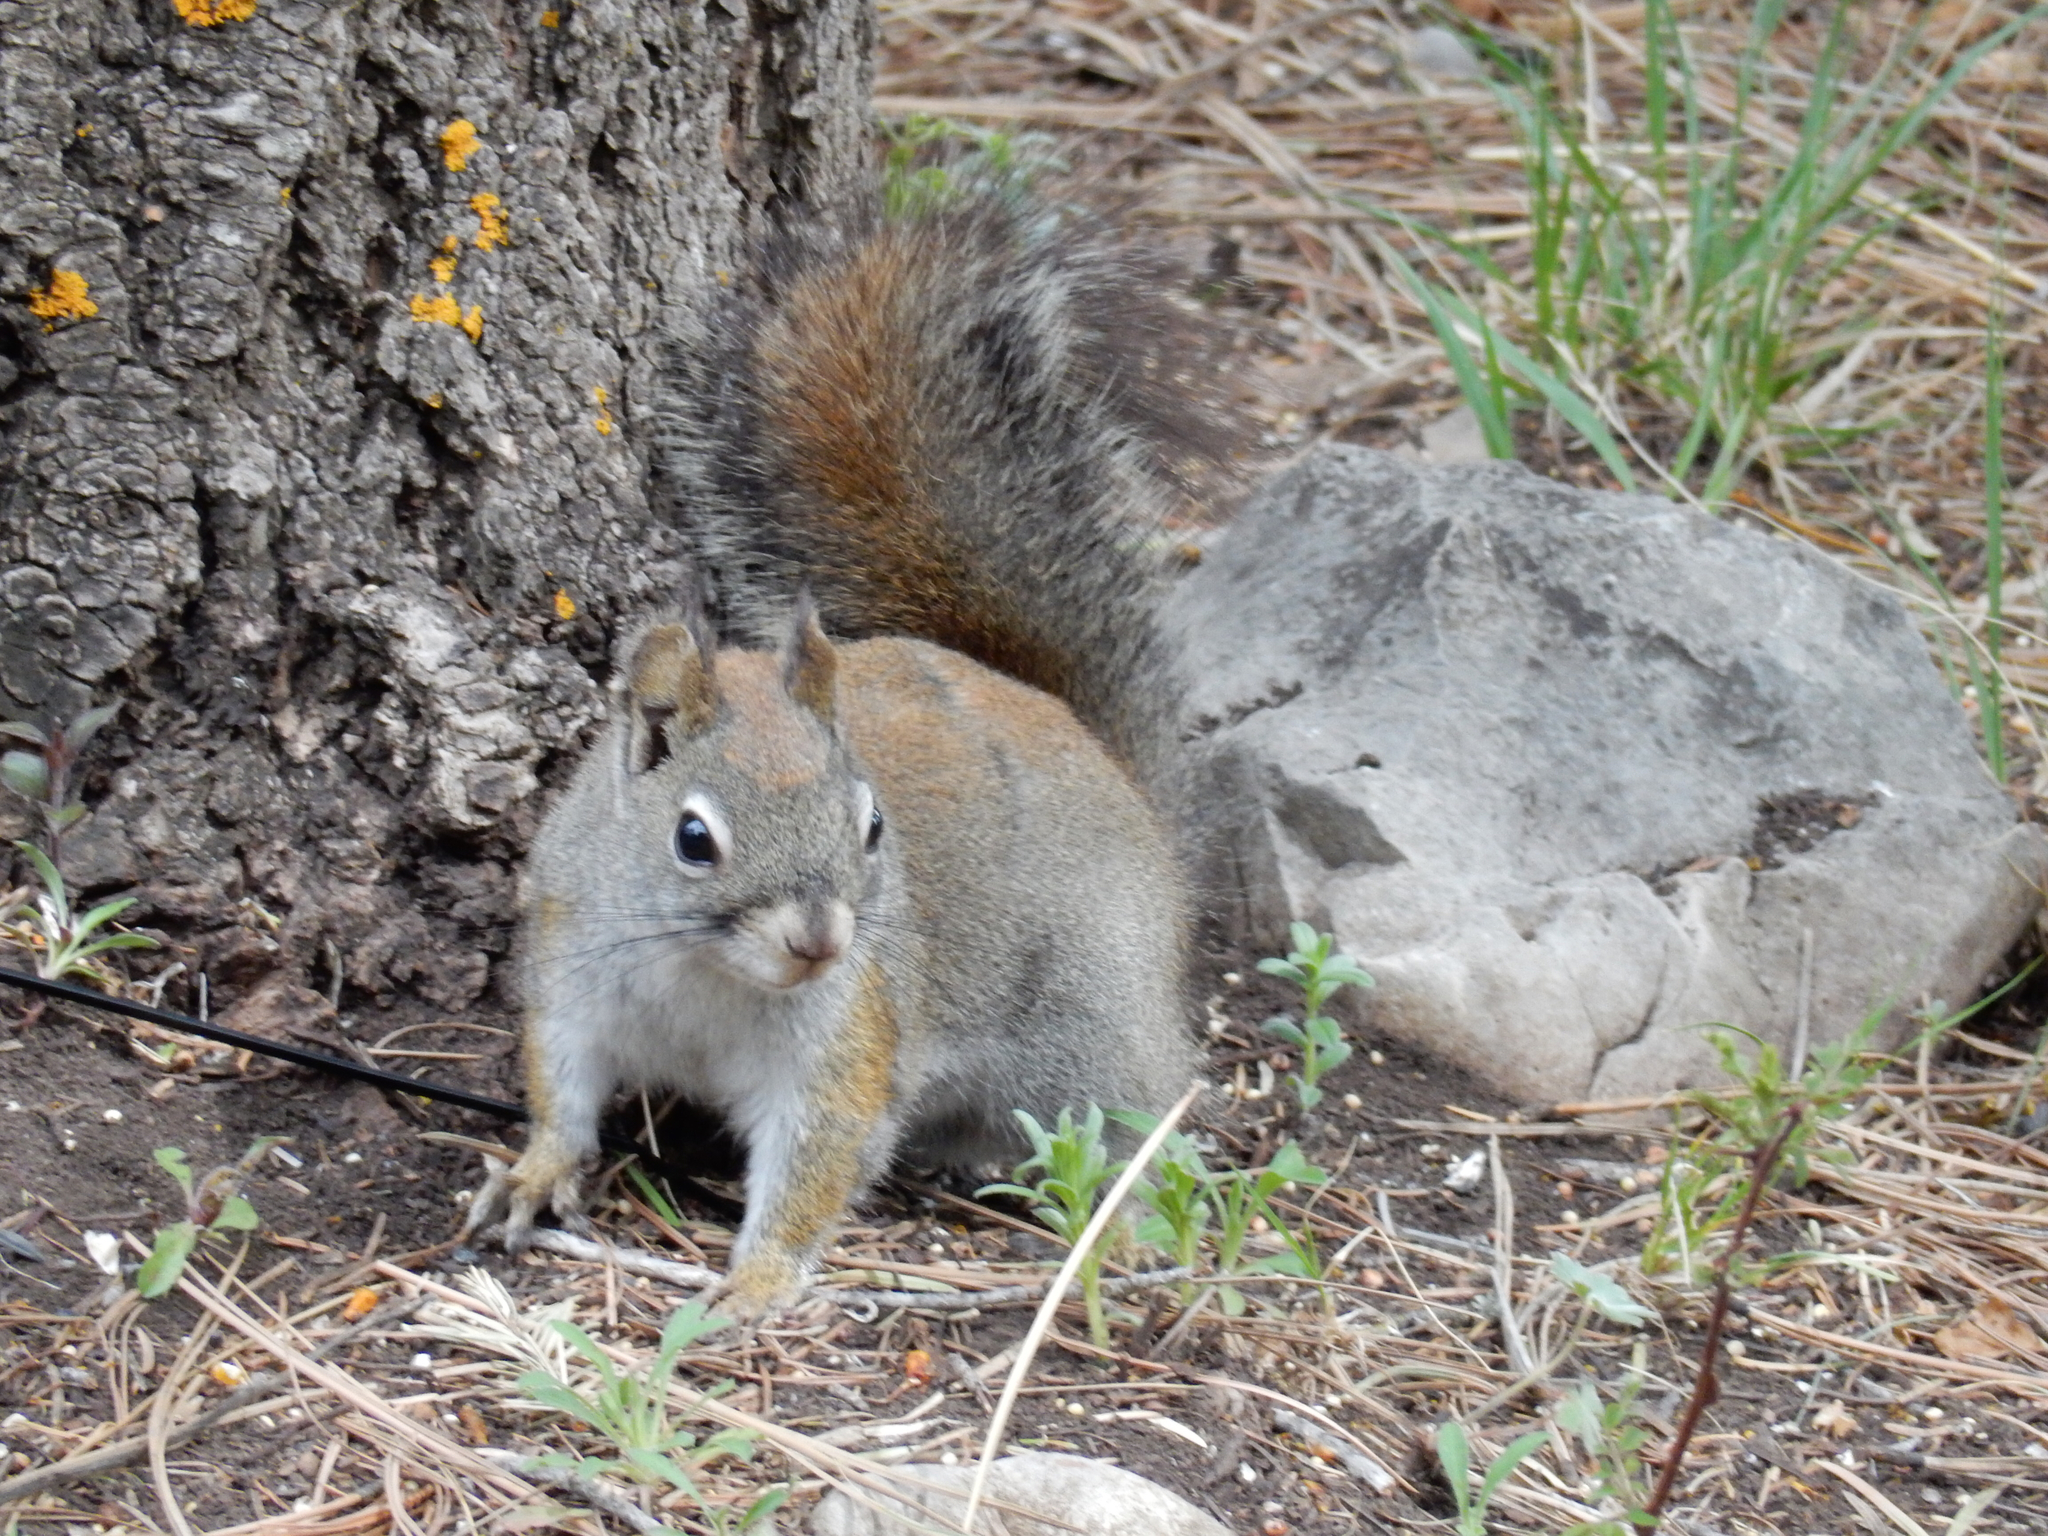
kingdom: Animalia
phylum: Chordata
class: Mammalia
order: Rodentia
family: Sciuridae
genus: Tamiasciurus
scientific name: Tamiasciurus hudsonicus
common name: Red squirrel
